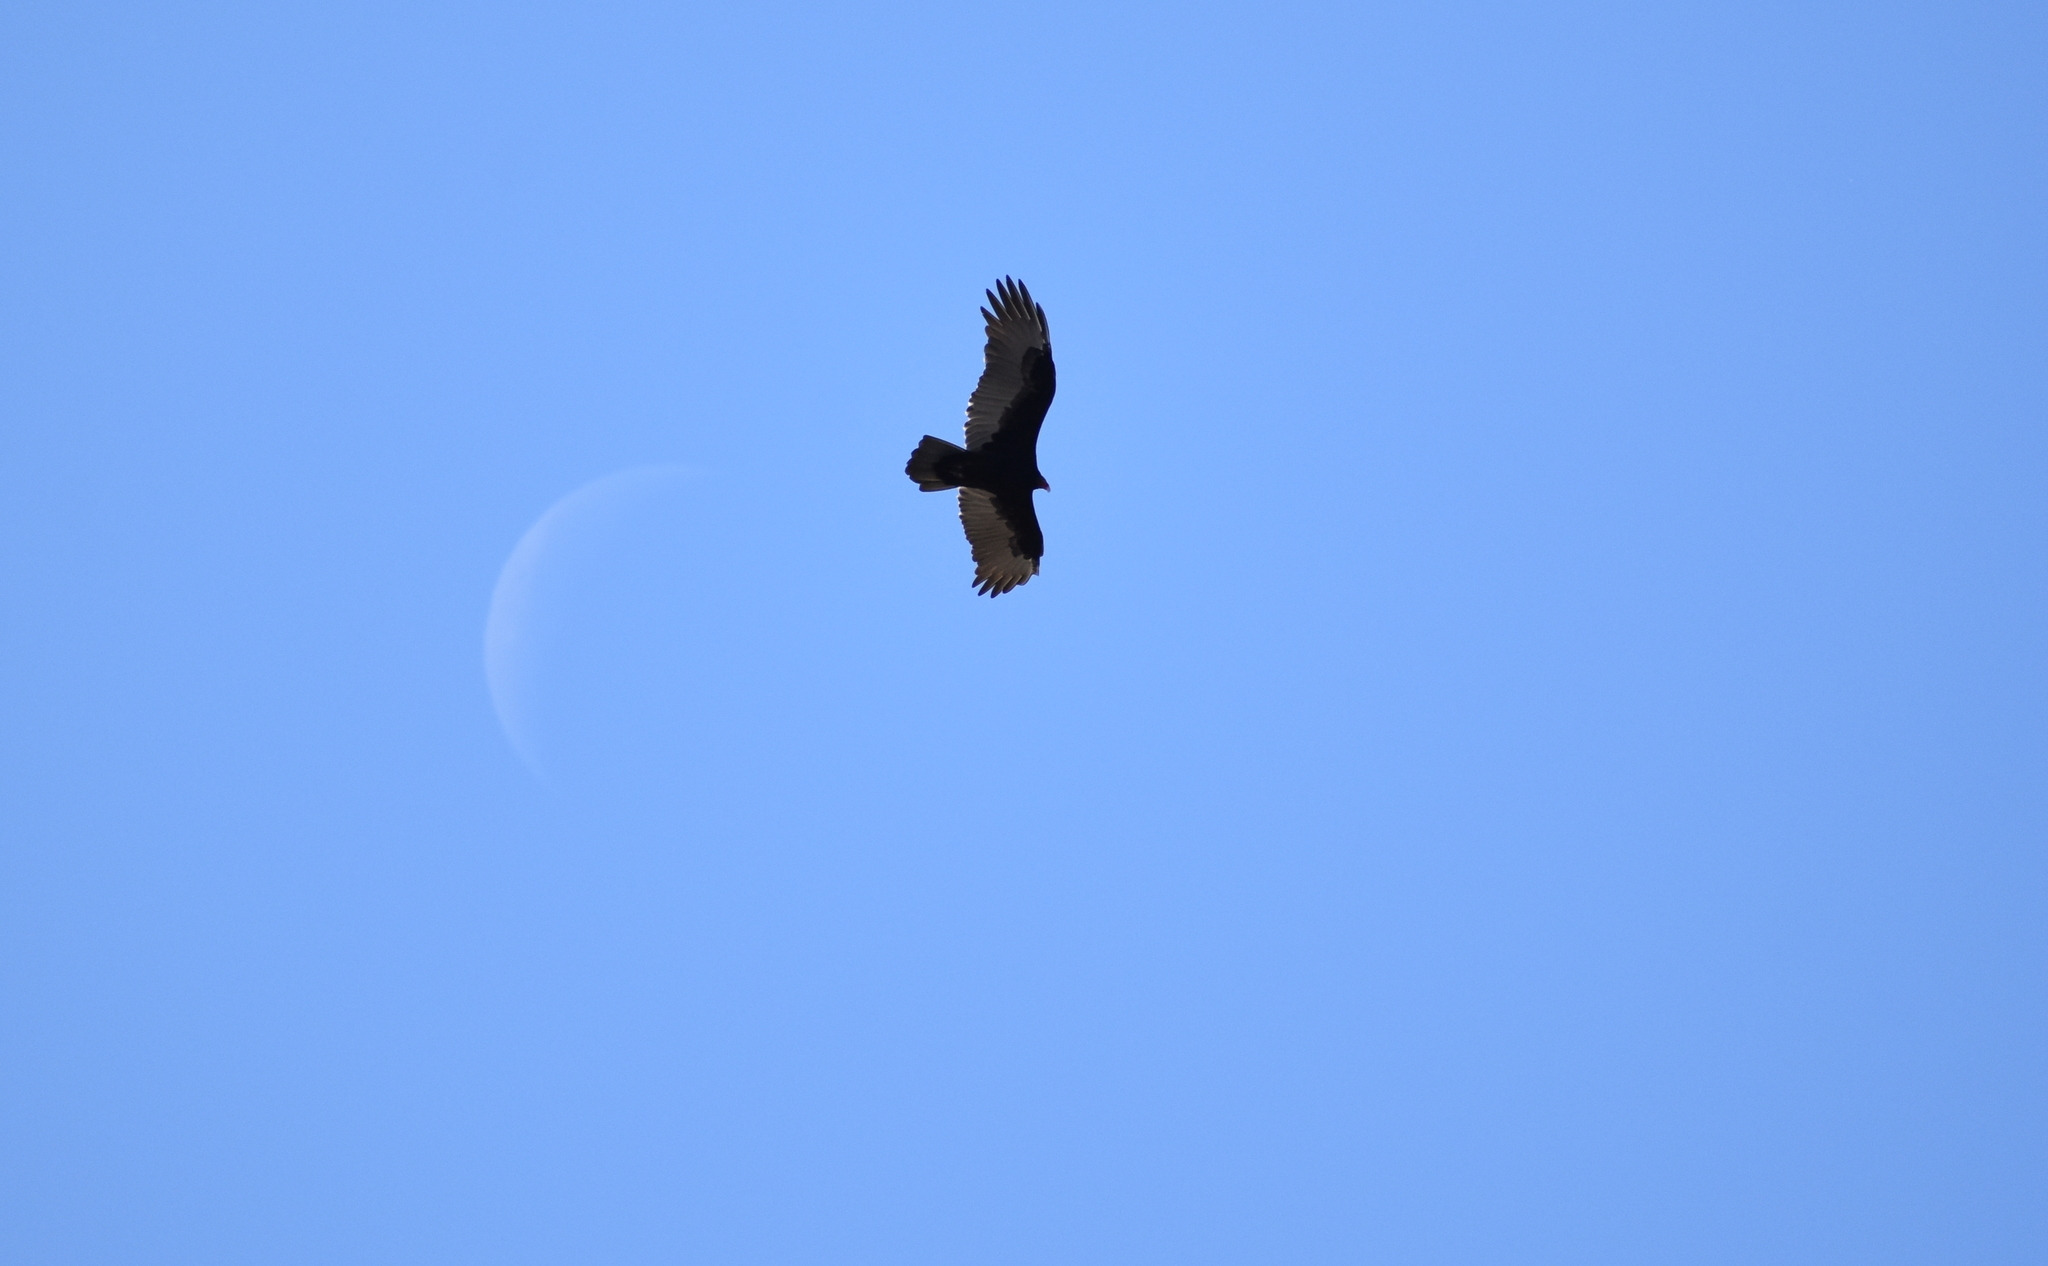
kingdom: Animalia
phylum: Chordata
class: Aves
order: Accipitriformes
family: Cathartidae
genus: Cathartes
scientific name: Cathartes aura
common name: Turkey vulture
